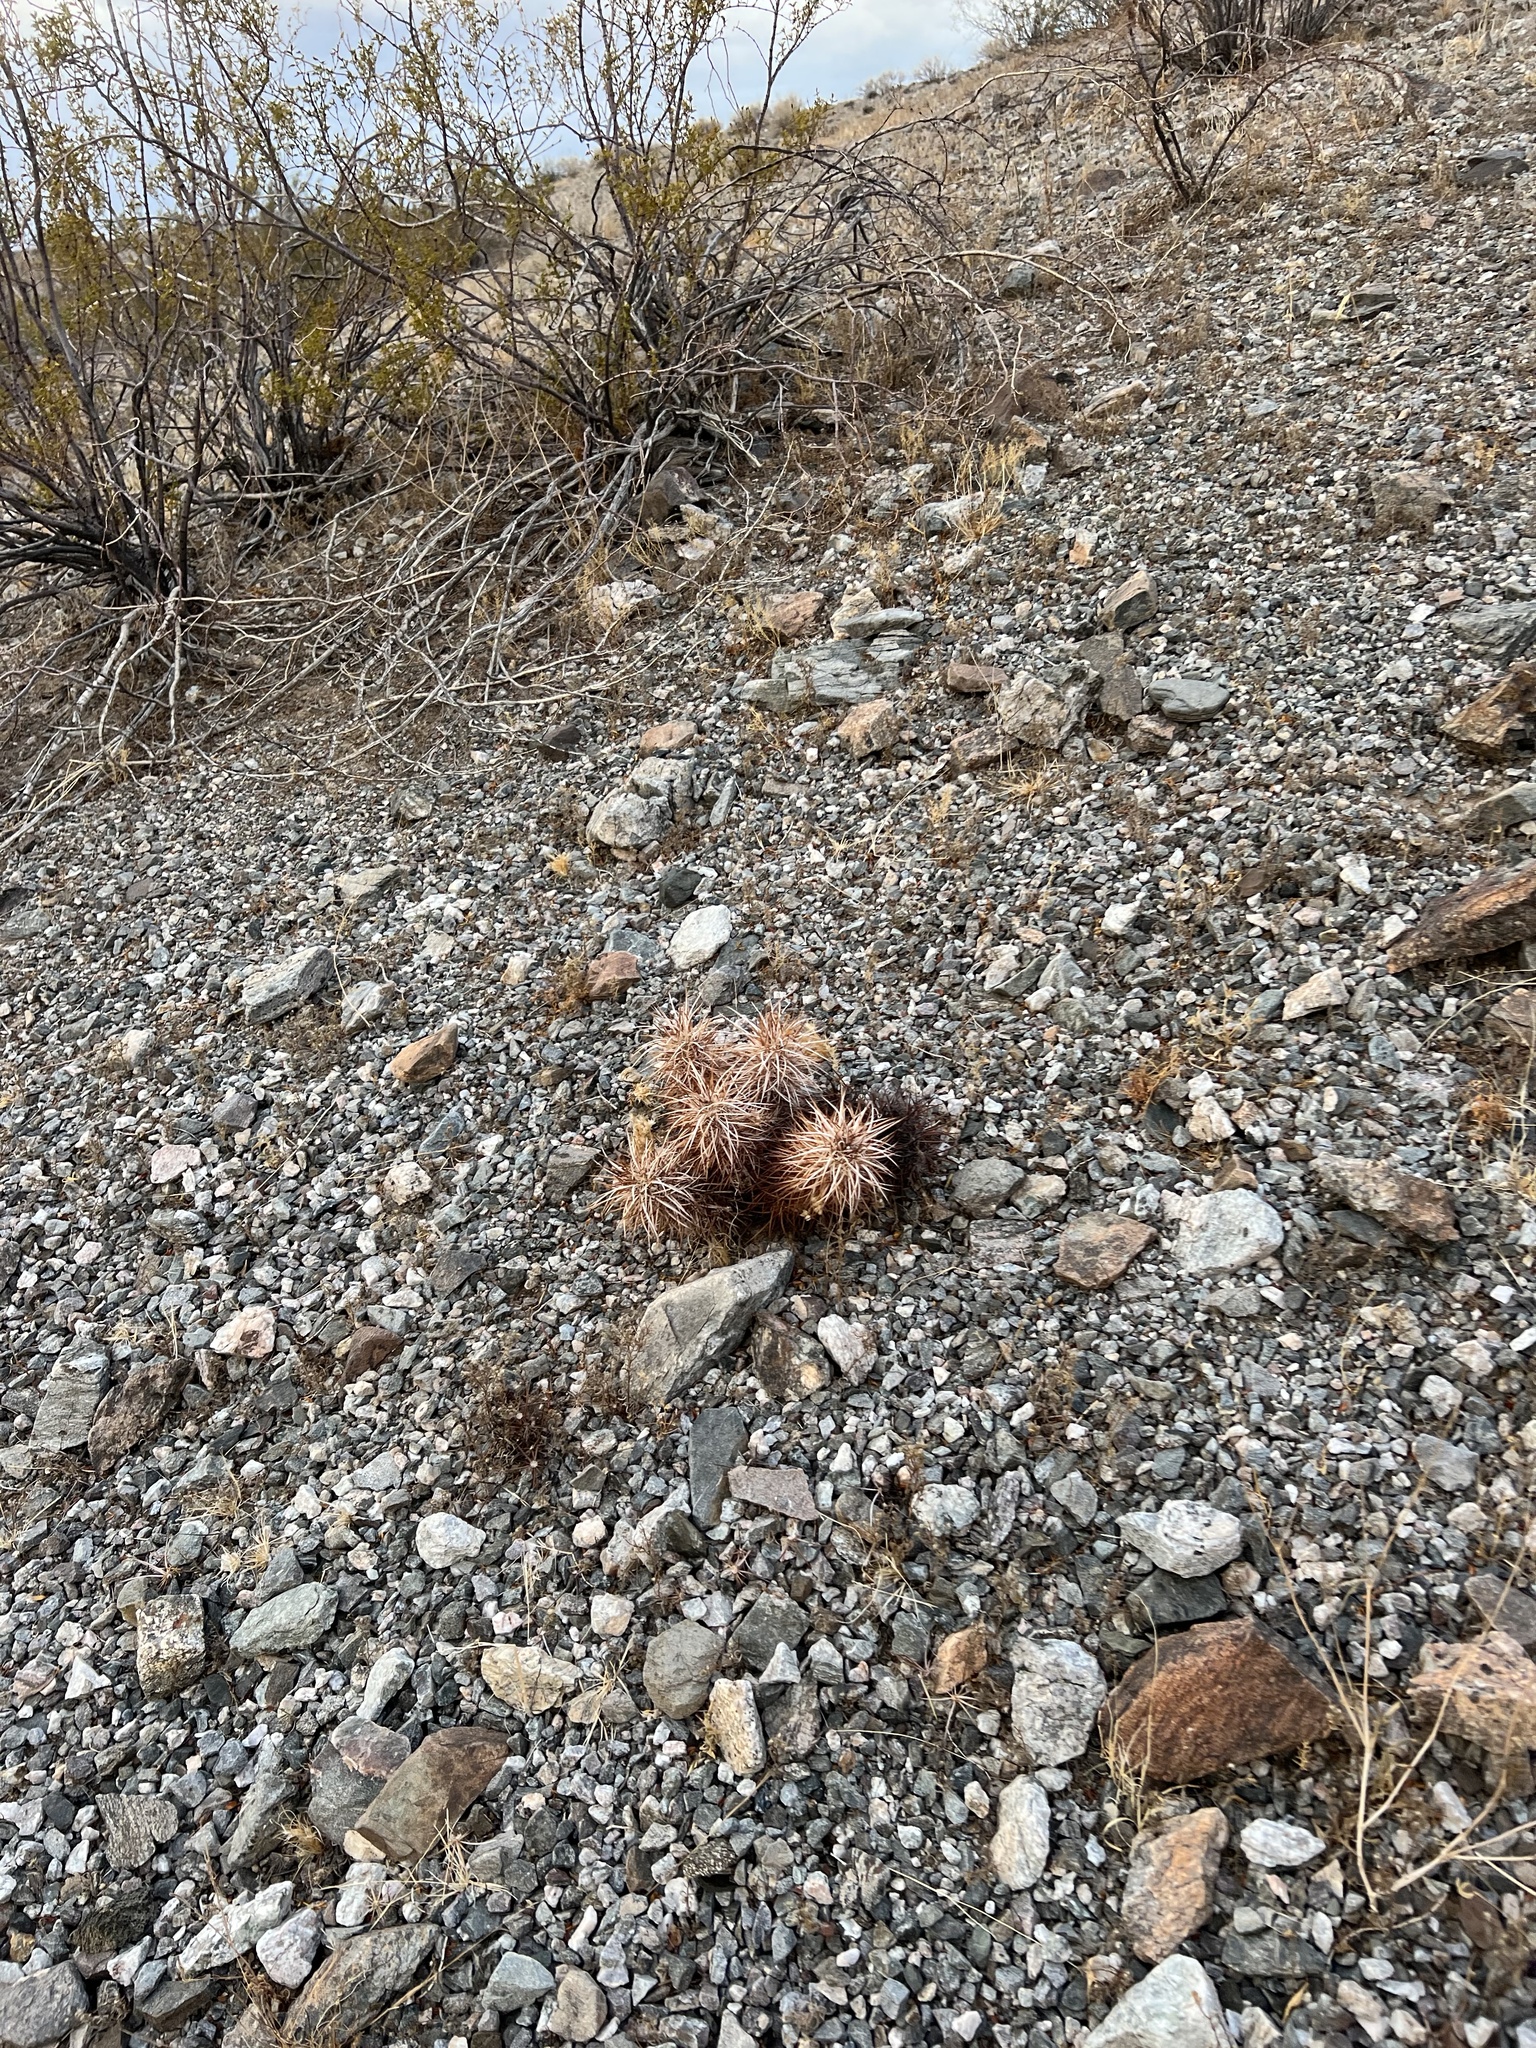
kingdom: Plantae
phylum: Tracheophyta
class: Magnoliopsida
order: Caryophyllales
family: Cactaceae
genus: Echinocereus
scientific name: Echinocereus engelmannii
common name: Engelmann's hedgehog cactus
